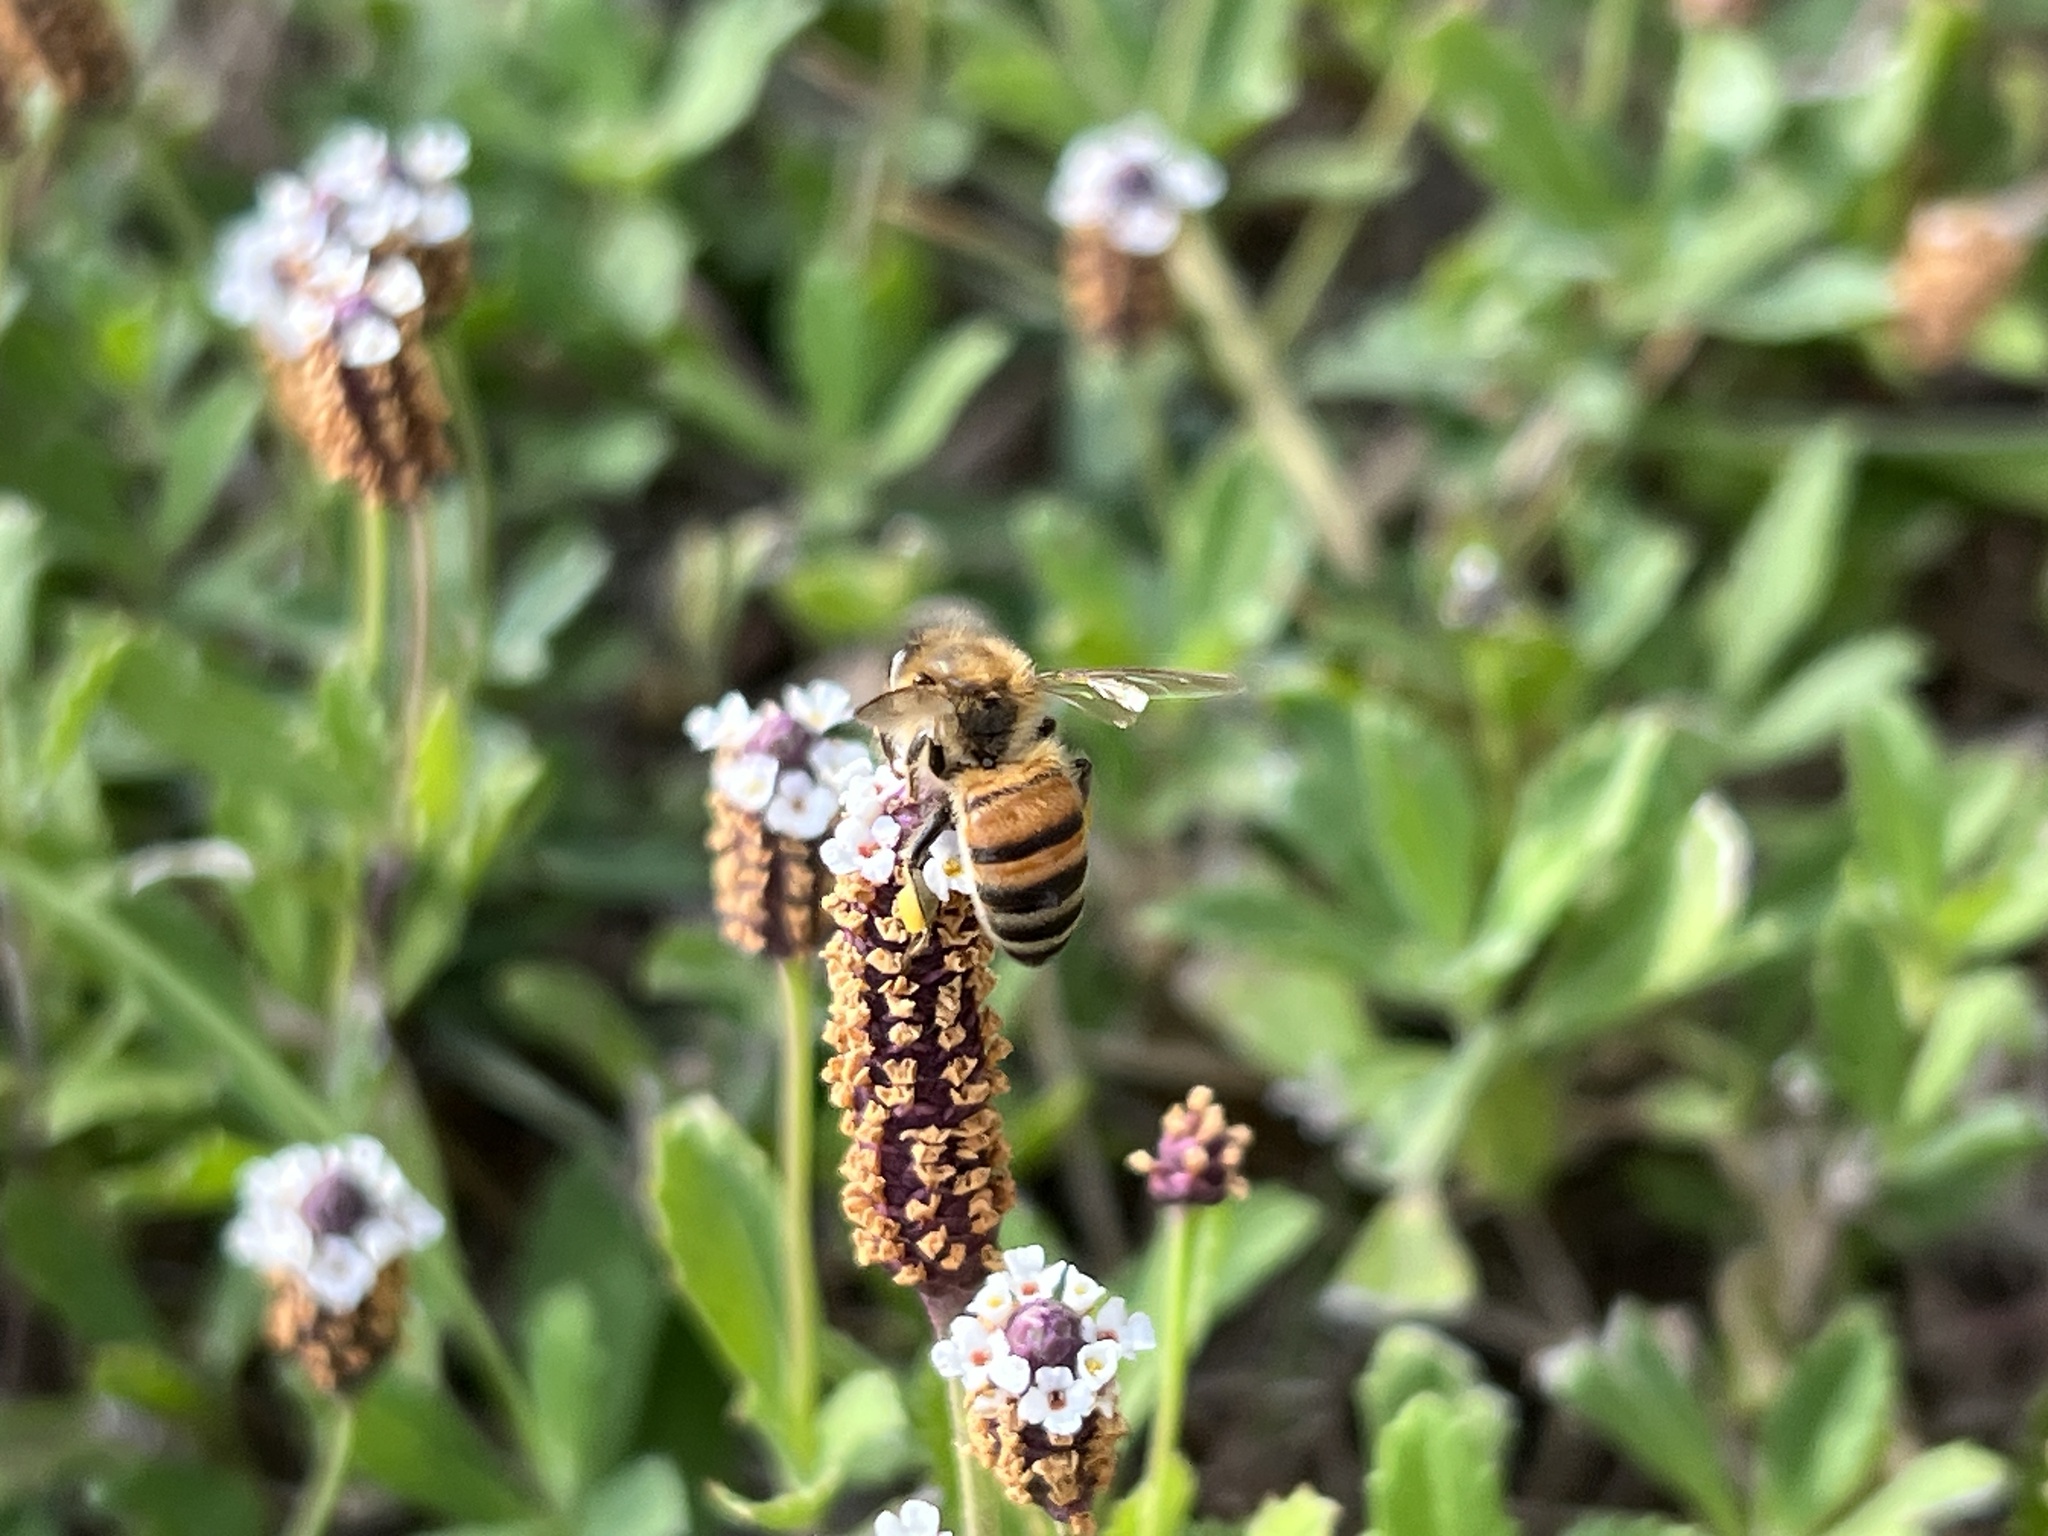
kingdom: Plantae
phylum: Tracheophyta
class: Magnoliopsida
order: Lamiales
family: Verbenaceae
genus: Phyla
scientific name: Phyla nodiflora
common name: Frogfruit
